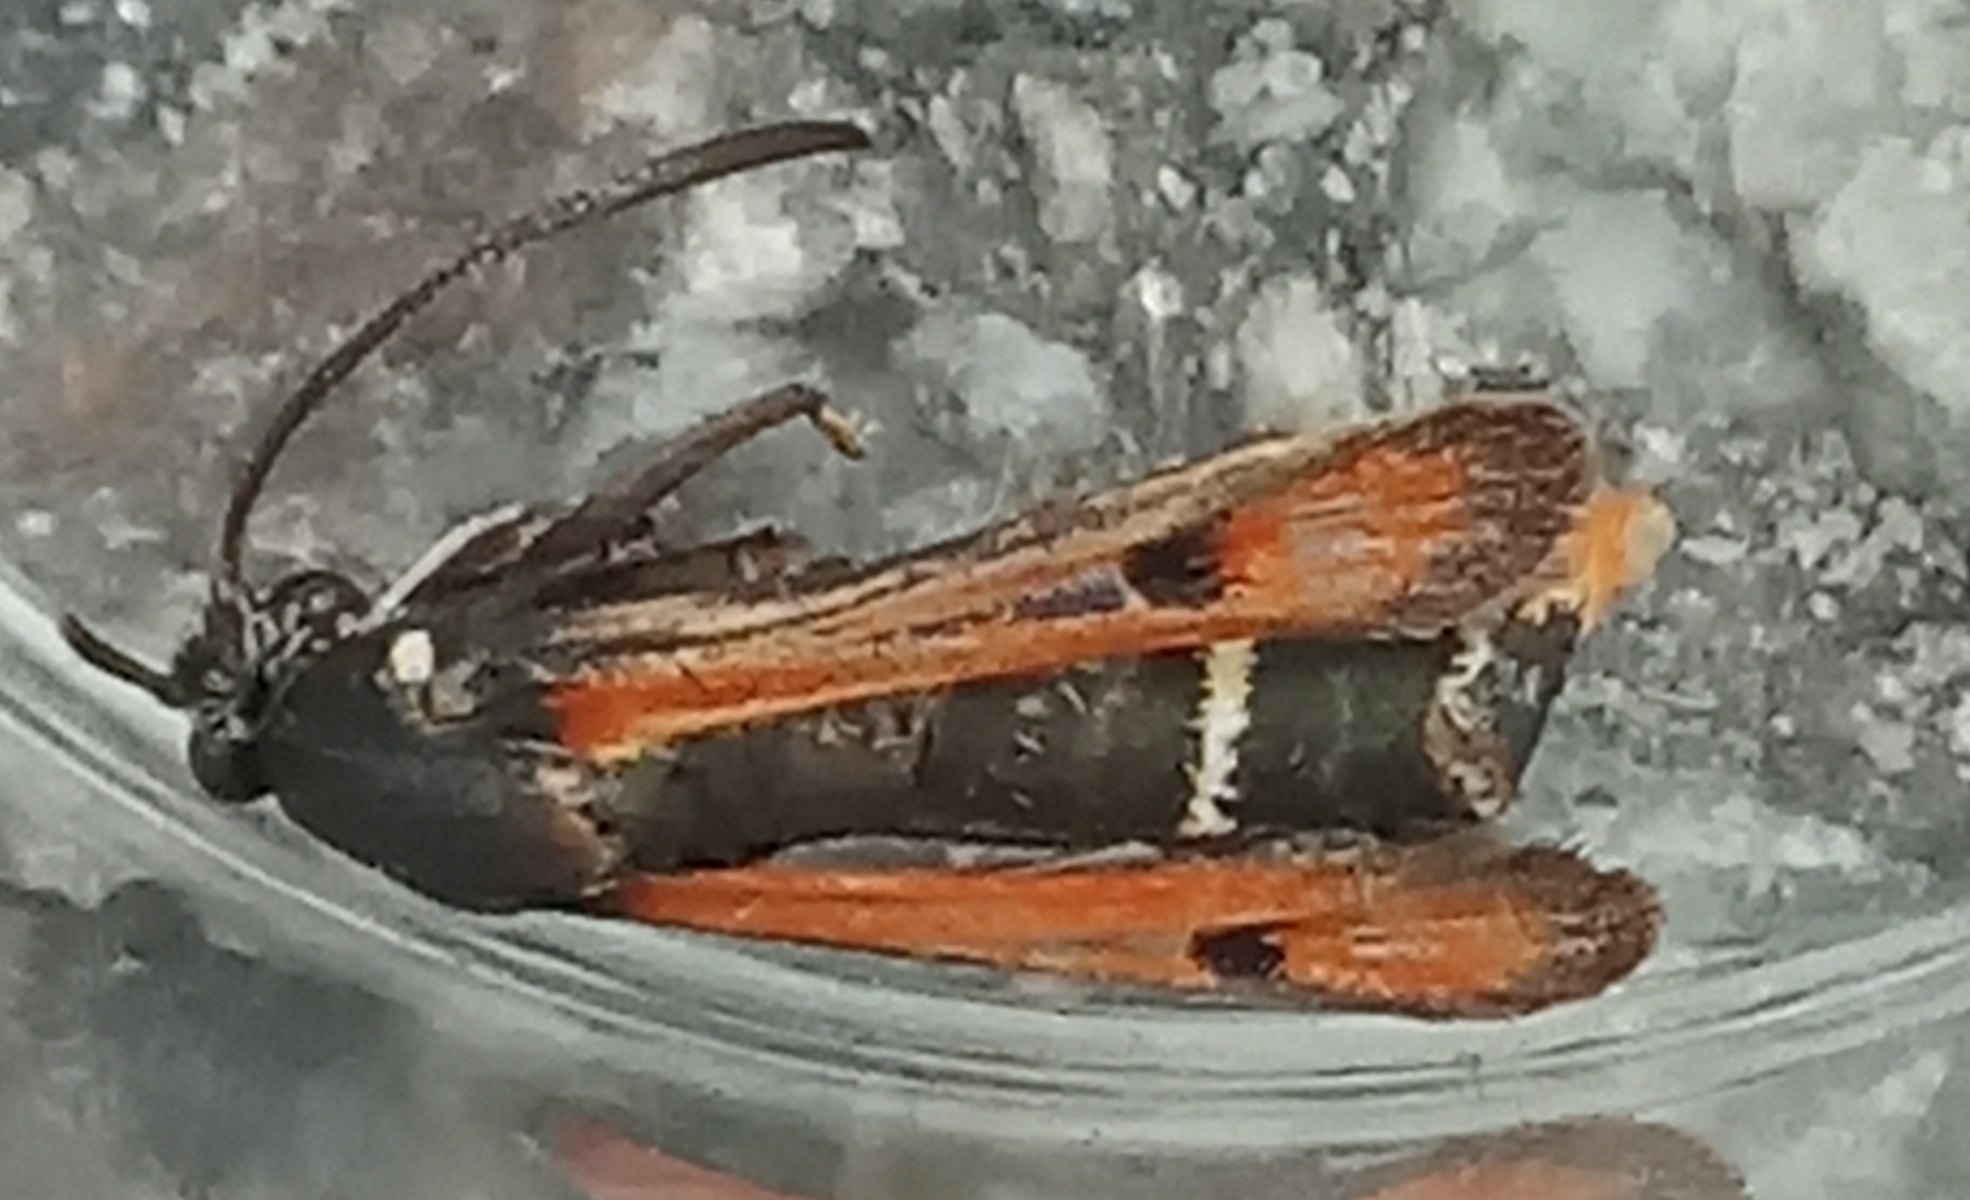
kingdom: Animalia
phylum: Arthropoda
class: Insecta
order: Lepidoptera
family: Sesiidae
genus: Pyropteron
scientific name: Pyropteron chrysidiforme
